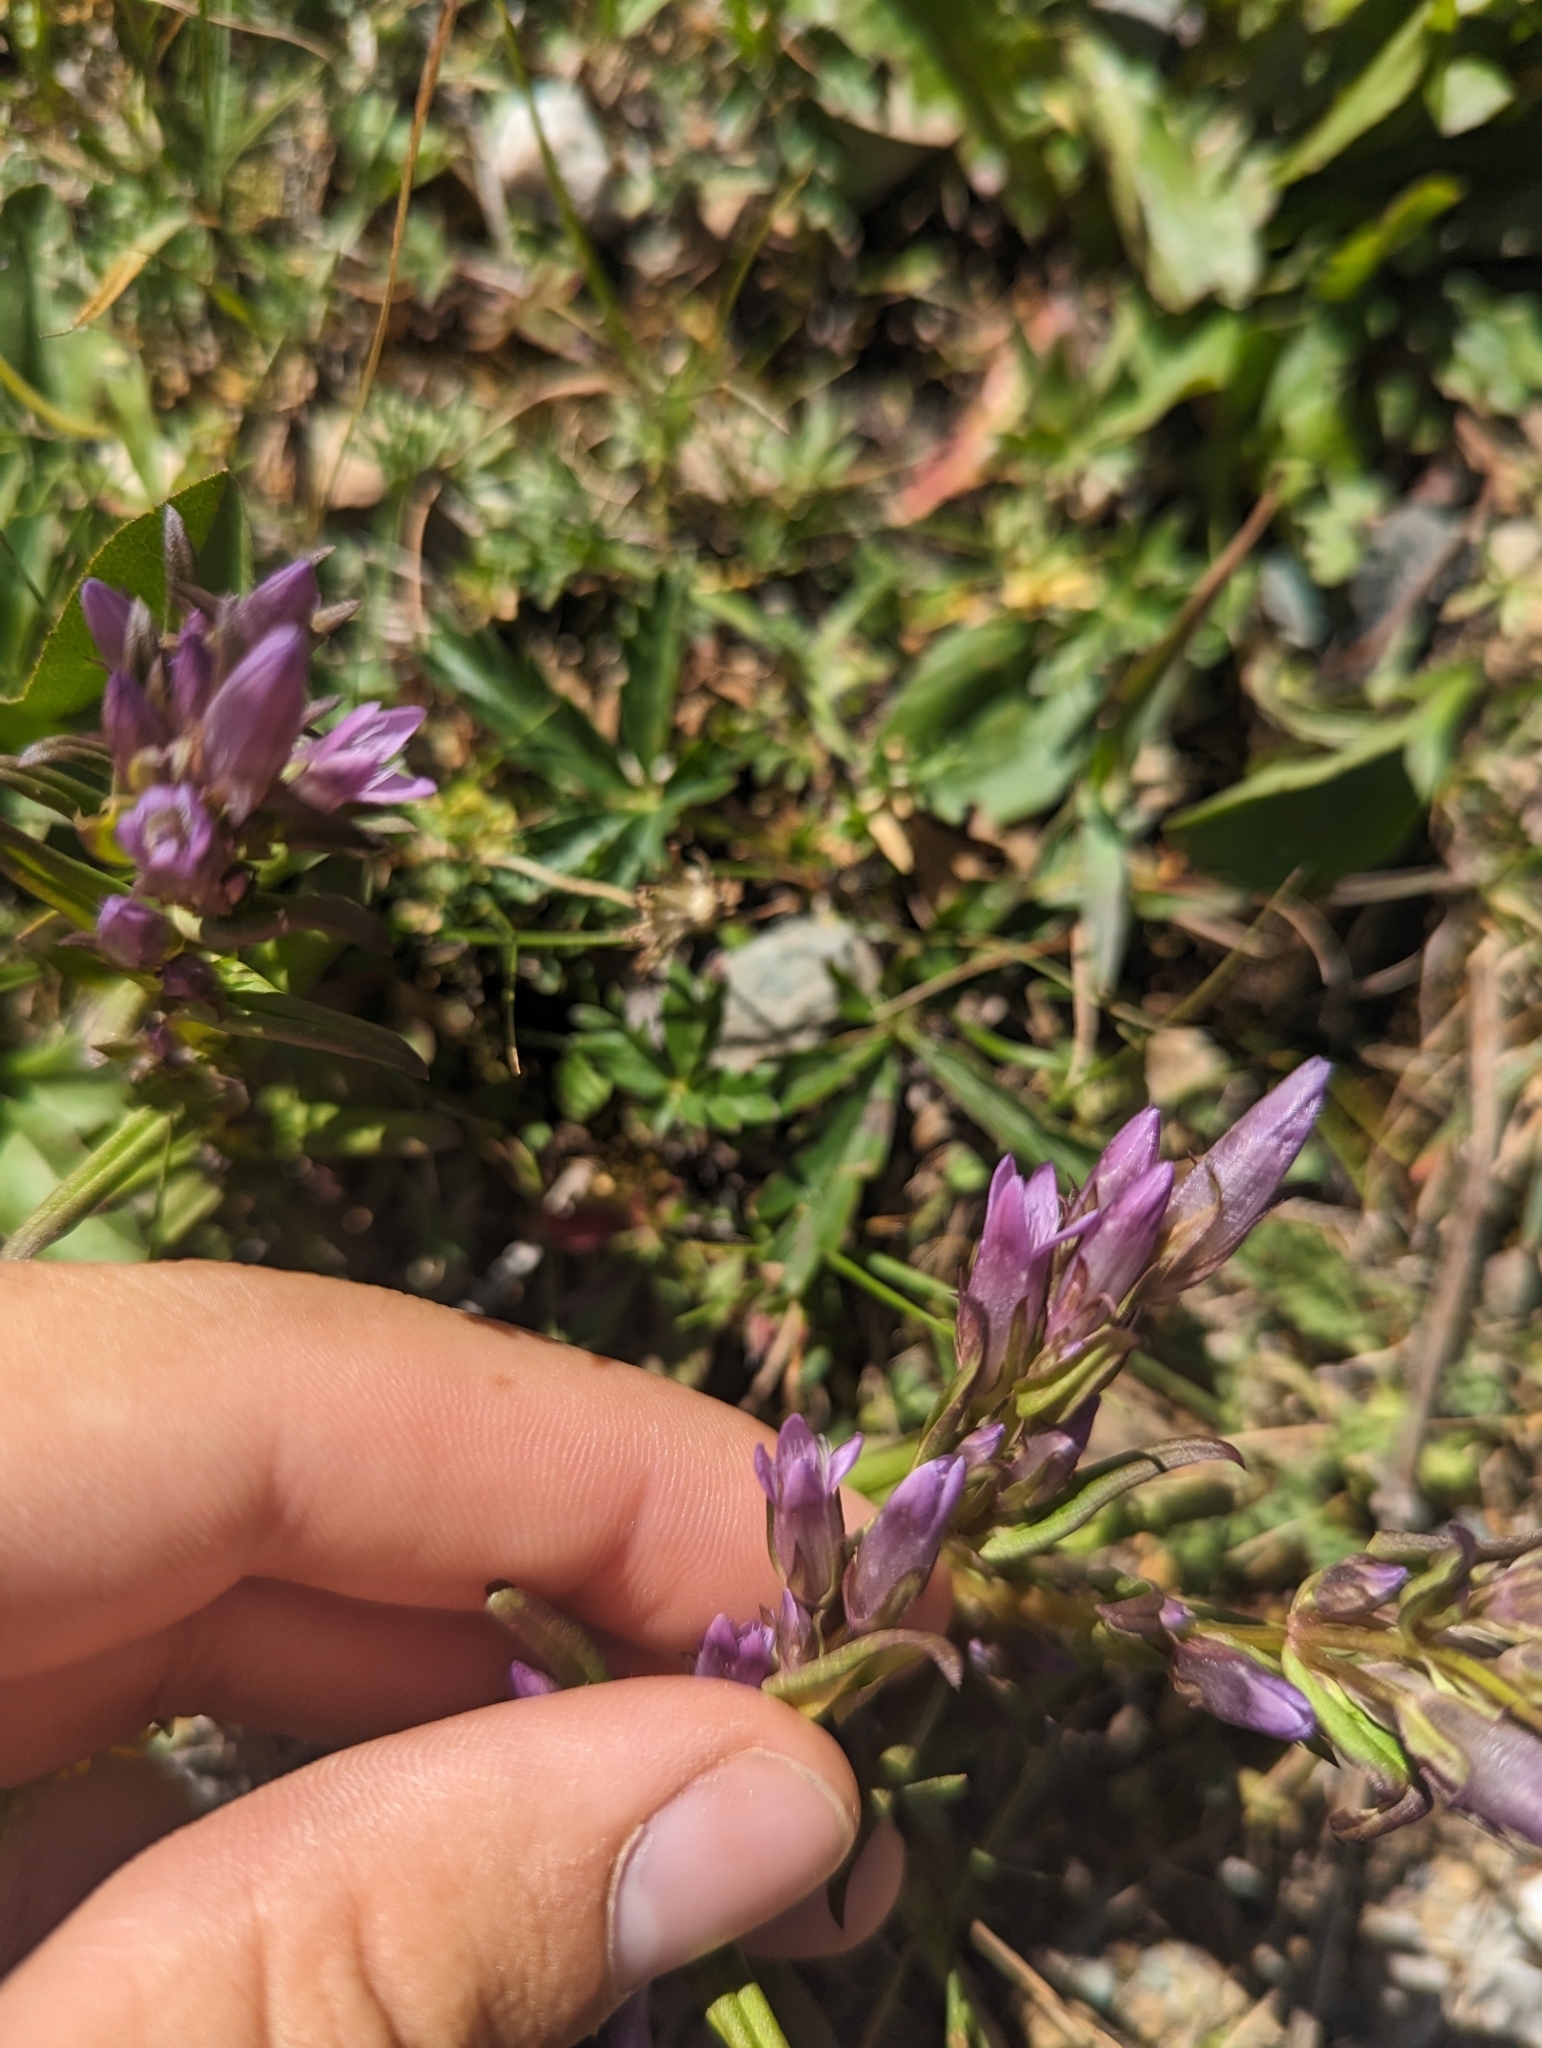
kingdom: Plantae
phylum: Tracheophyta
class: Magnoliopsida
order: Gentianales
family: Gentianaceae
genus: Gentianella
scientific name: Gentianella amarella
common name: Autumn gentian
